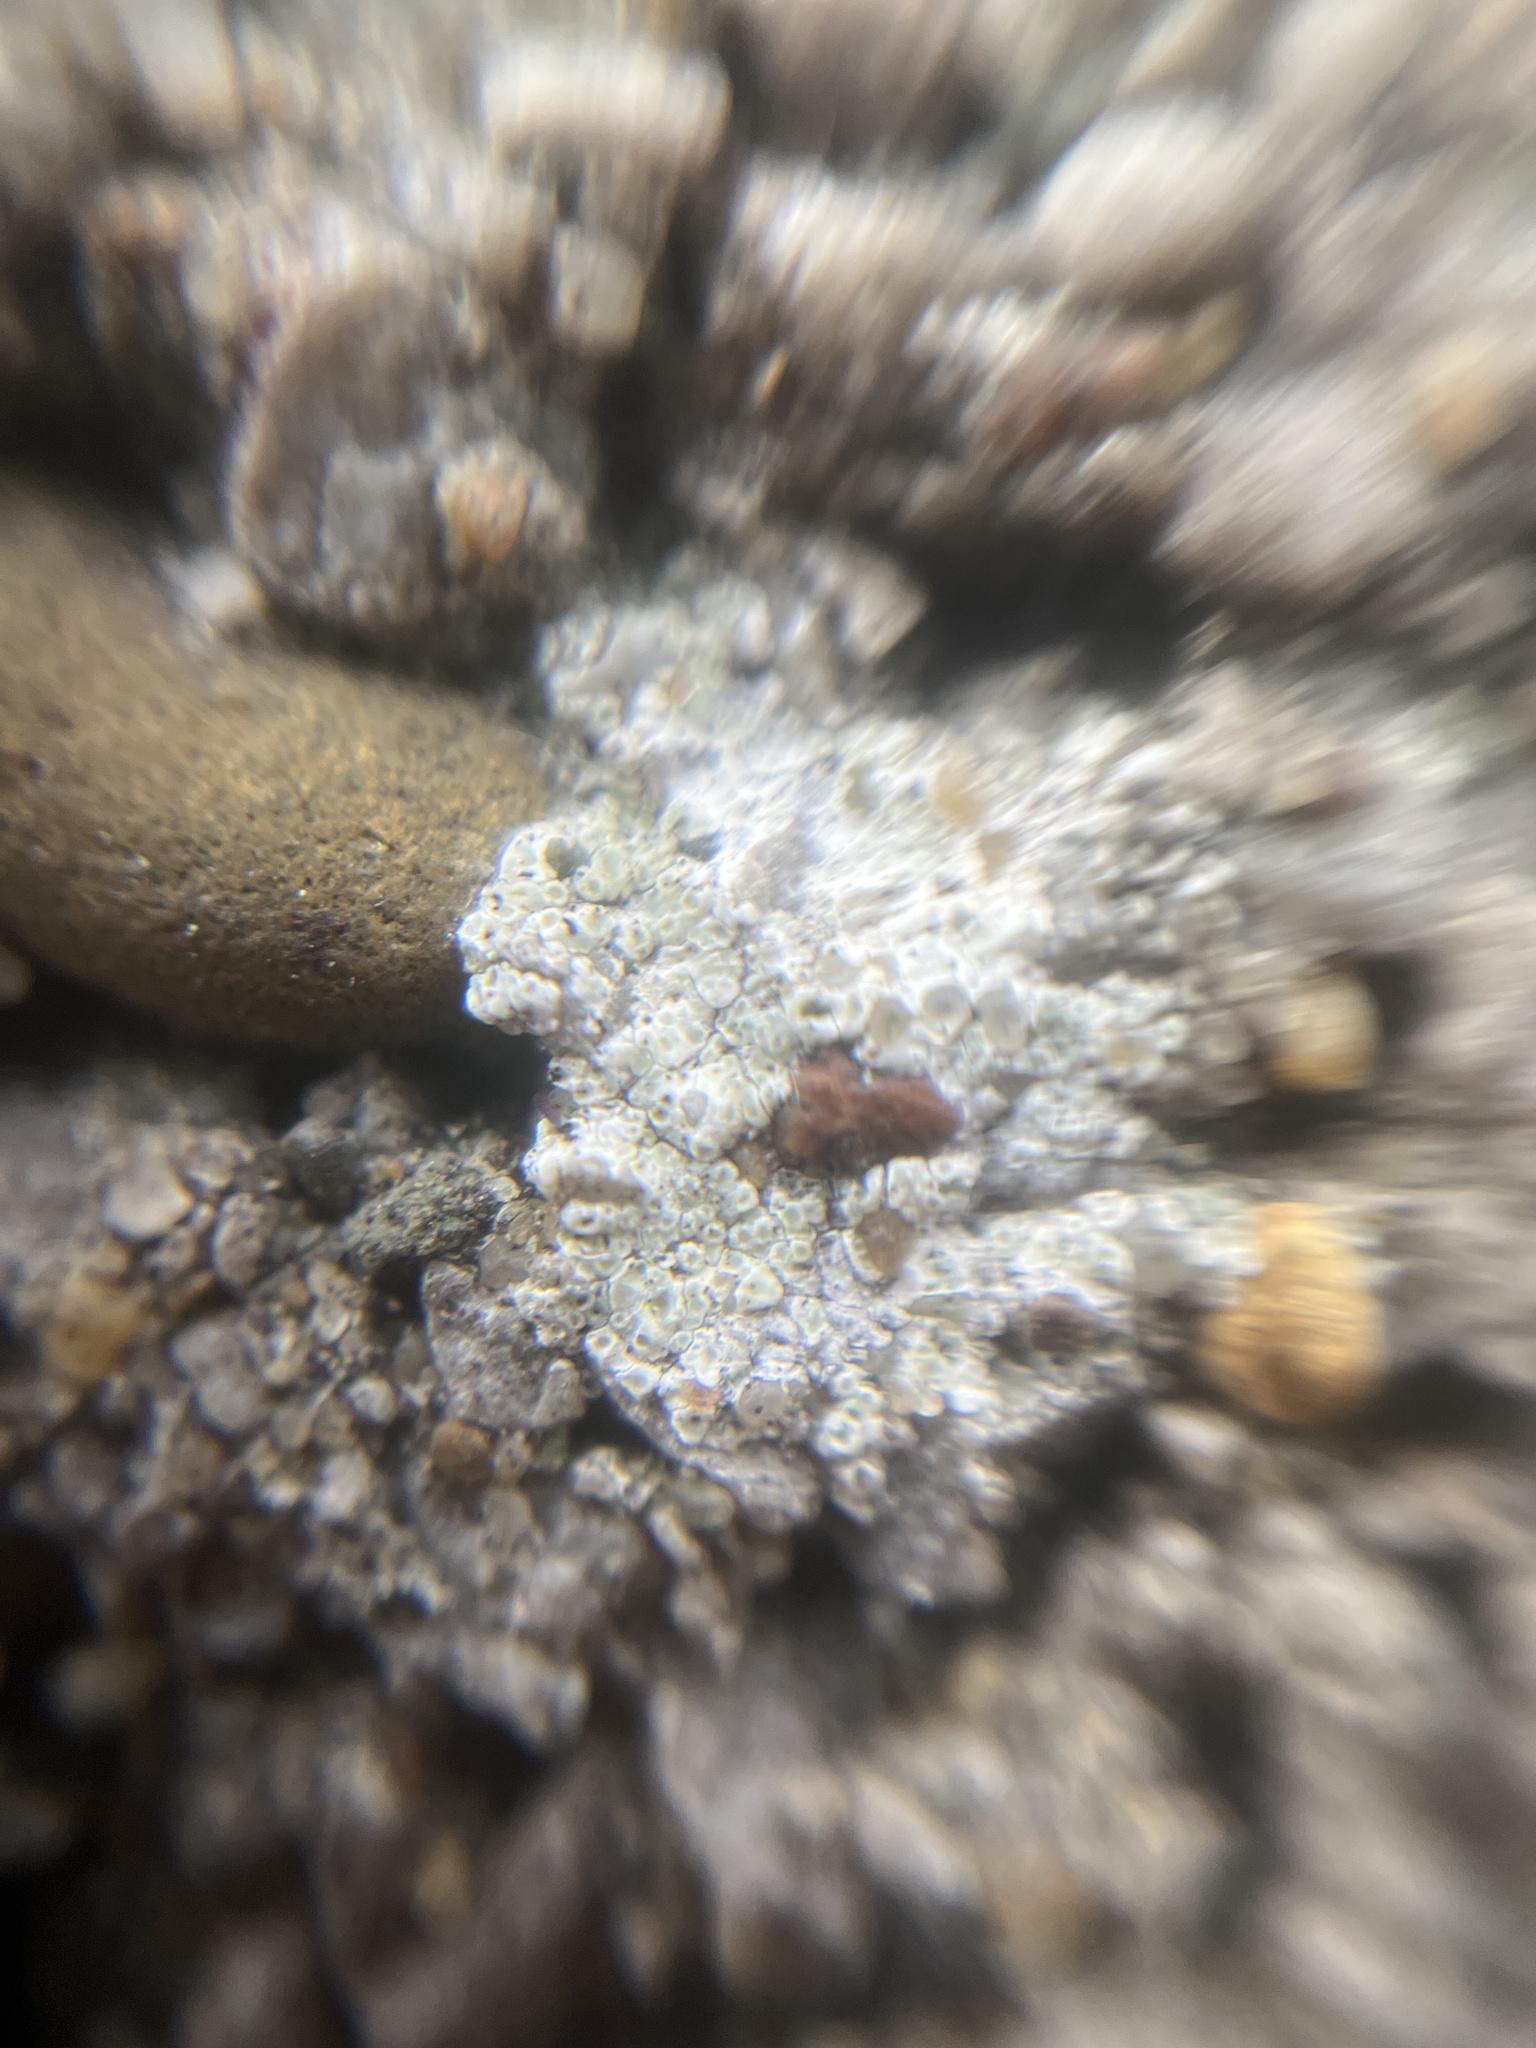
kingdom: Fungi
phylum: Ascomycota
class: Lecanoromycetes
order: Lecanorales
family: Lecanoraceae
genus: Polyozosia
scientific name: Polyozosia albescens
